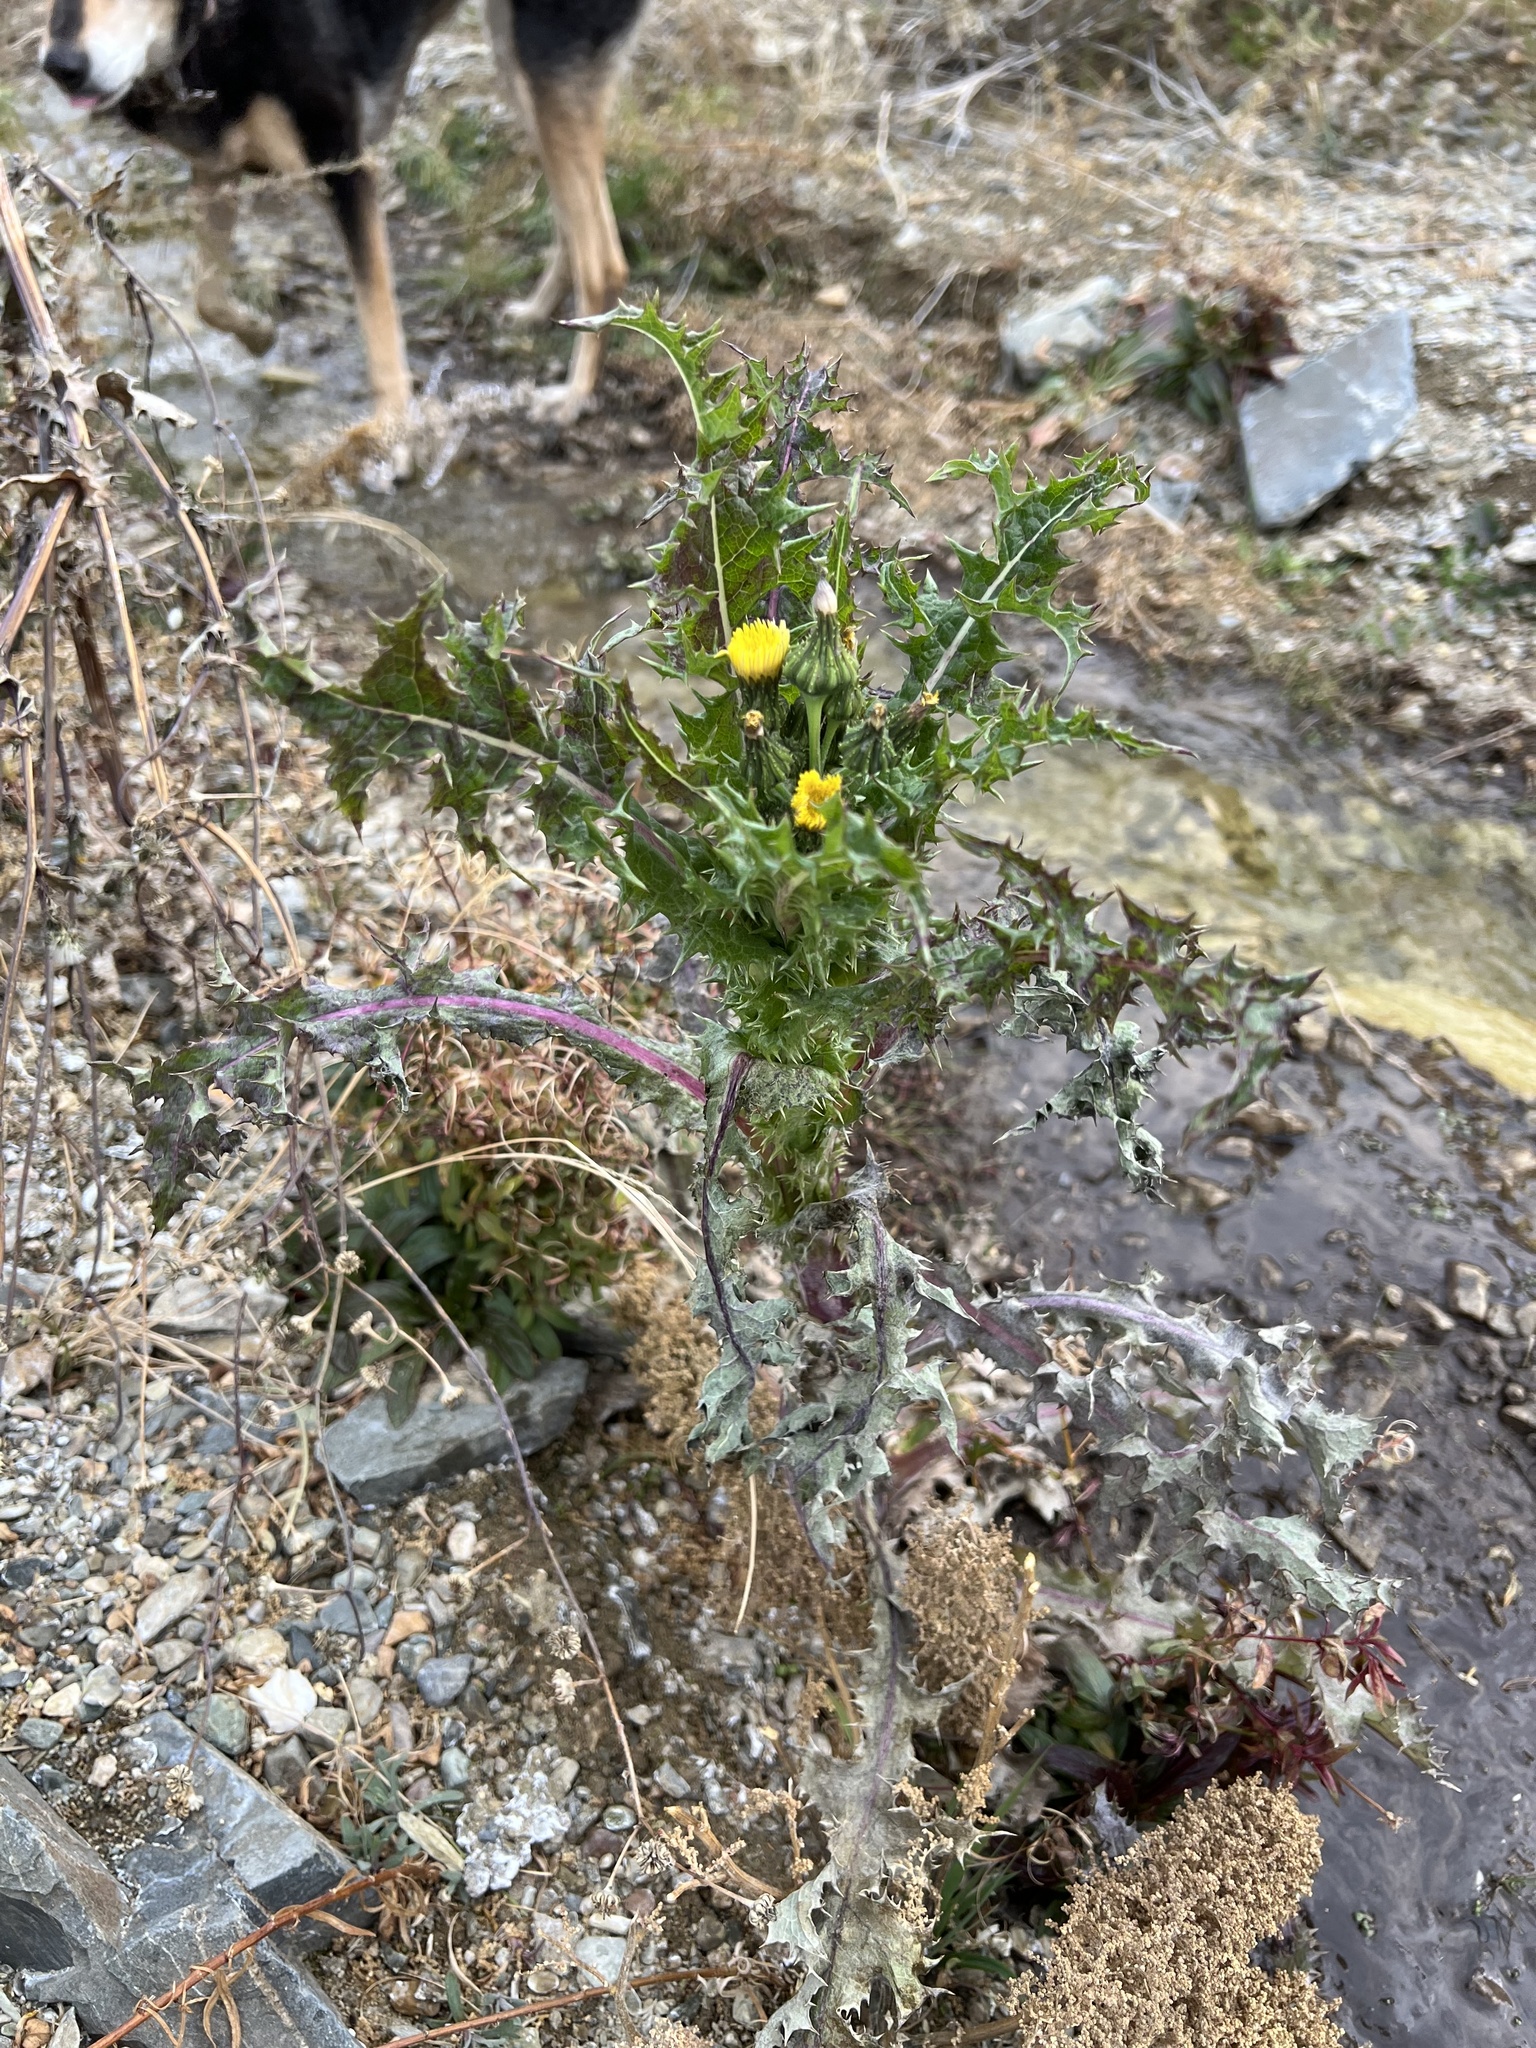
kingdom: Plantae
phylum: Tracheophyta
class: Magnoliopsida
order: Asterales
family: Asteraceae
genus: Sonchus
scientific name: Sonchus asper
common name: Prickly sow-thistle
